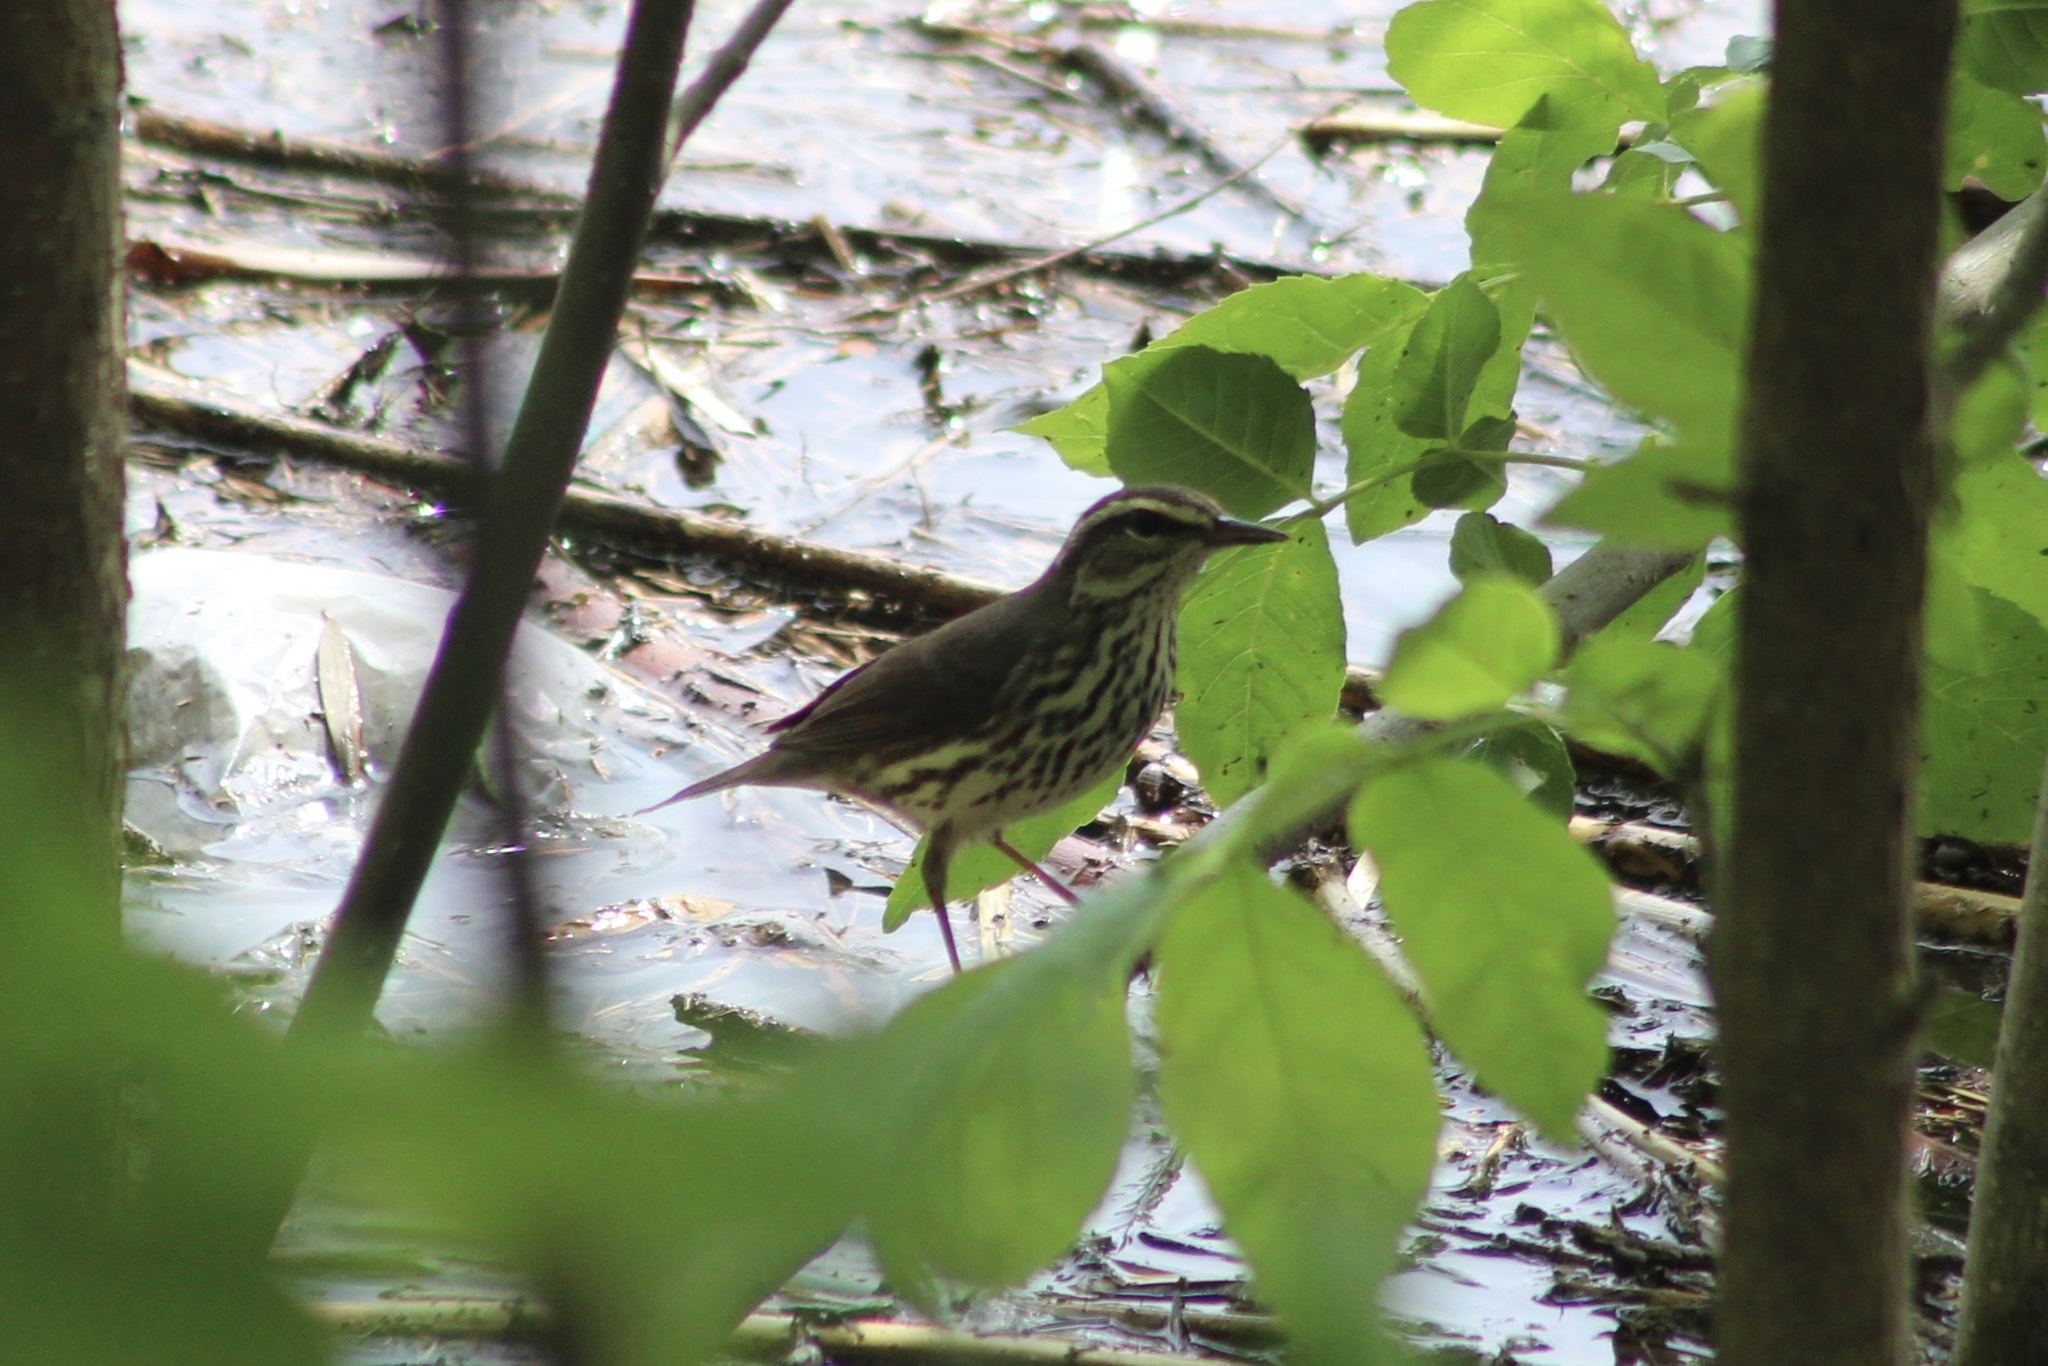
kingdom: Animalia
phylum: Chordata
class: Aves
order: Passeriformes
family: Parulidae
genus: Parkesia
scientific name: Parkesia noveboracensis
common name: Northern waterthrush
